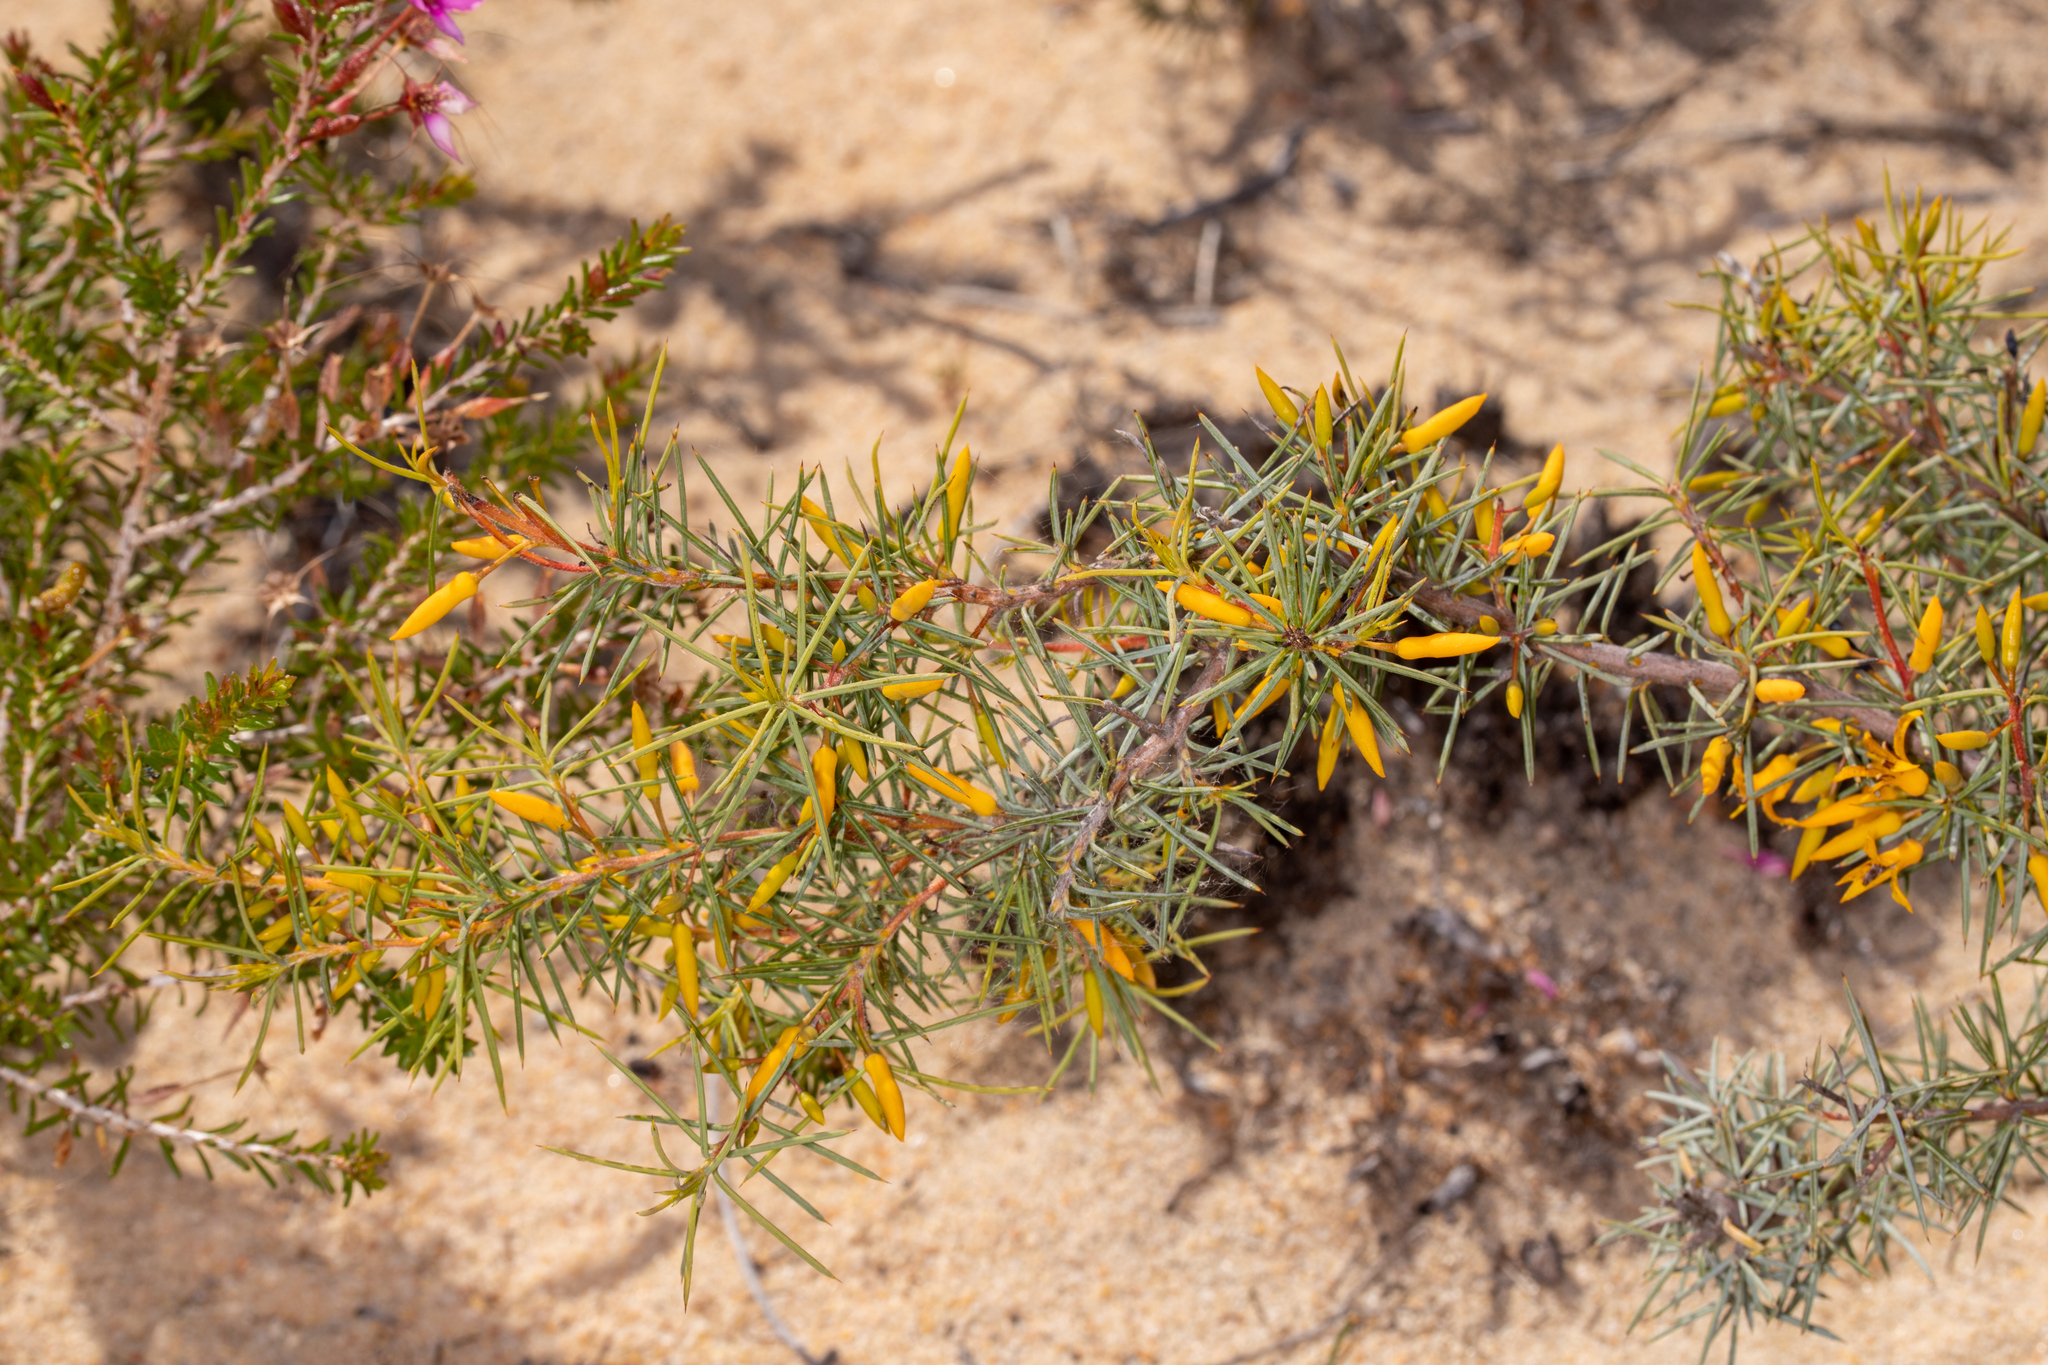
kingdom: Plantae
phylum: Tracheophyta
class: Magnoliopsida
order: Proteales
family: Proteaceae
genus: Persoonia
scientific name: Persoonia acicularis
